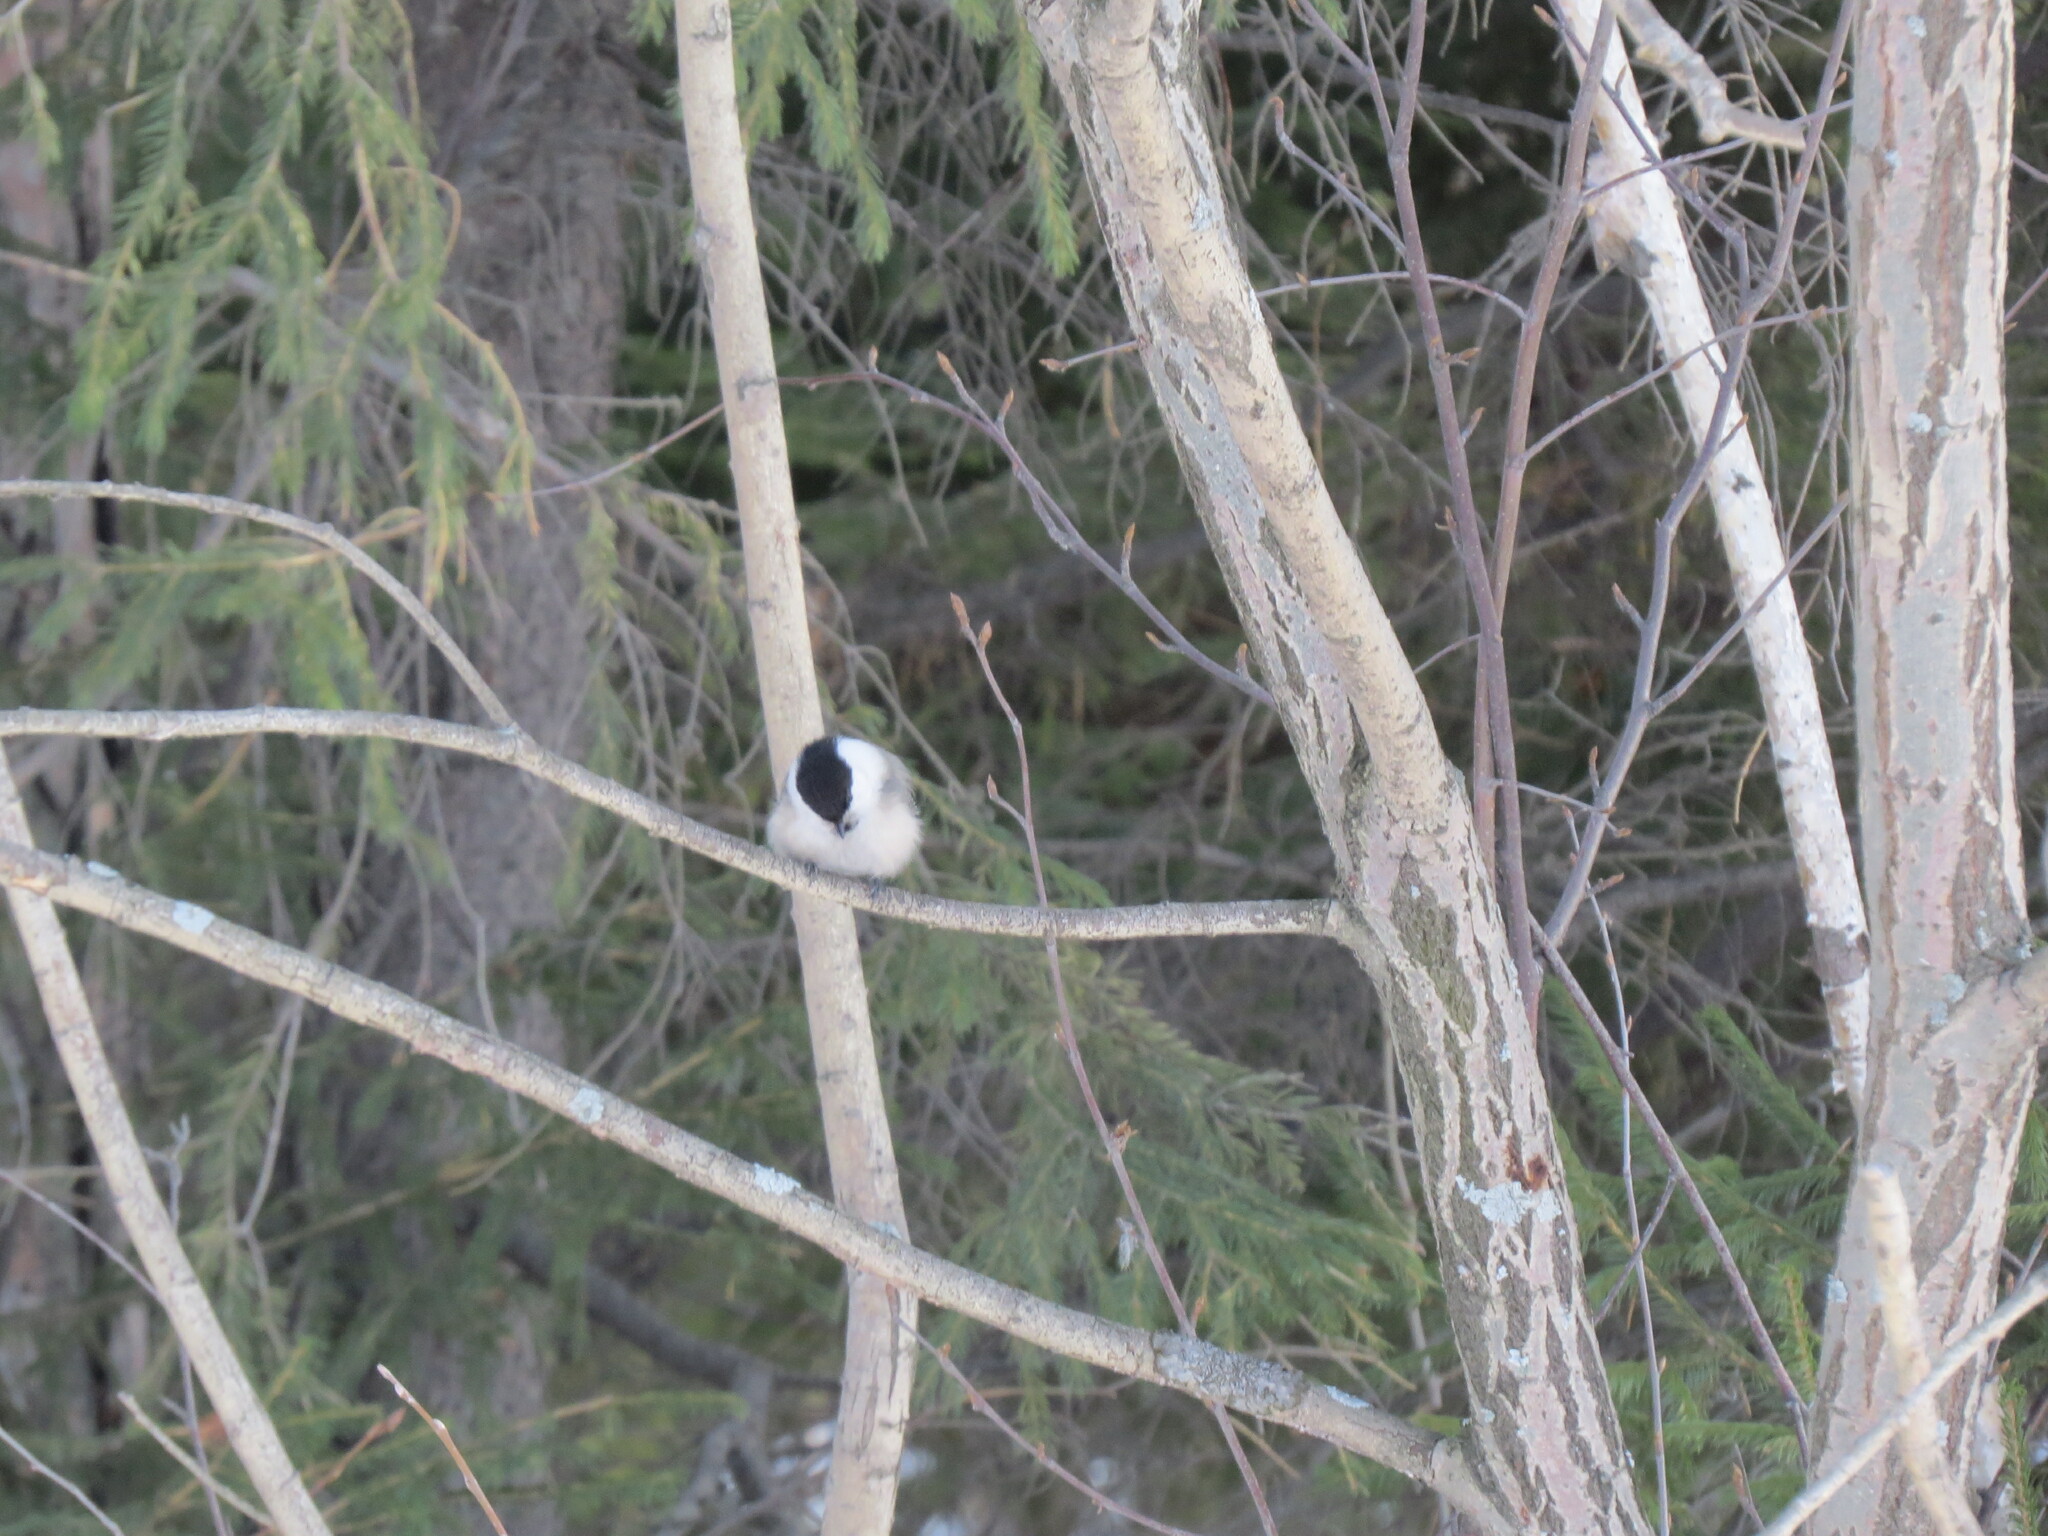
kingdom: Animalia
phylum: Chordata
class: Aves
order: Passeriformes
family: Paridae
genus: Poecile
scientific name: Poecile montanus
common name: Willow tit
